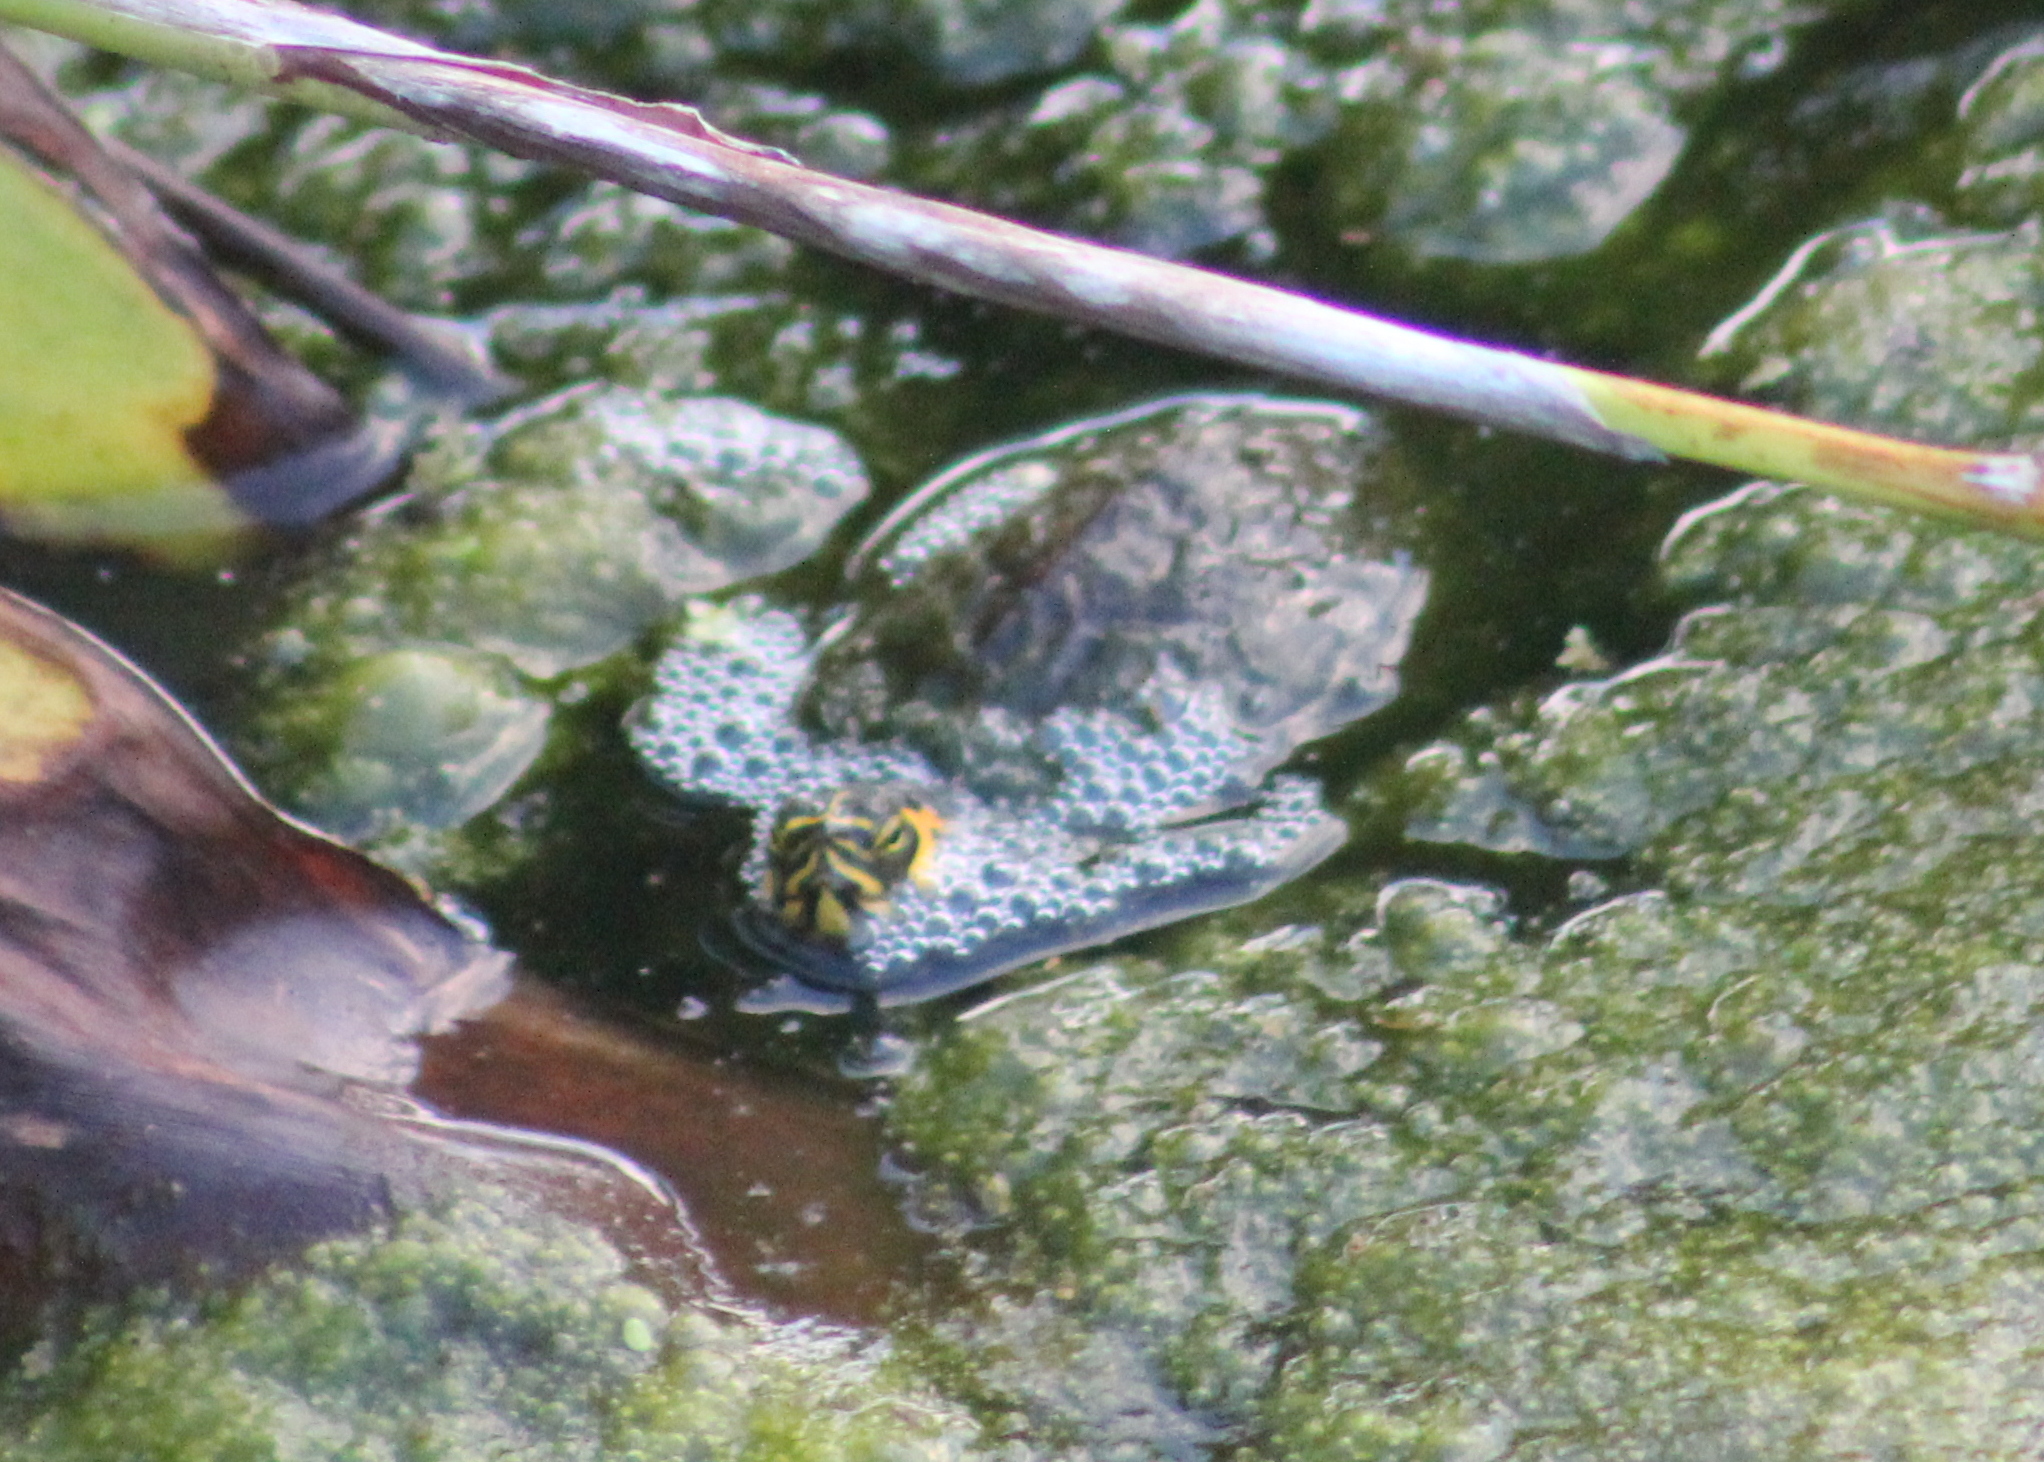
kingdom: Animalia
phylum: Chordata
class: Testudines
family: Emydidae
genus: Trachemys
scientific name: Trachemys scripta
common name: Slider
